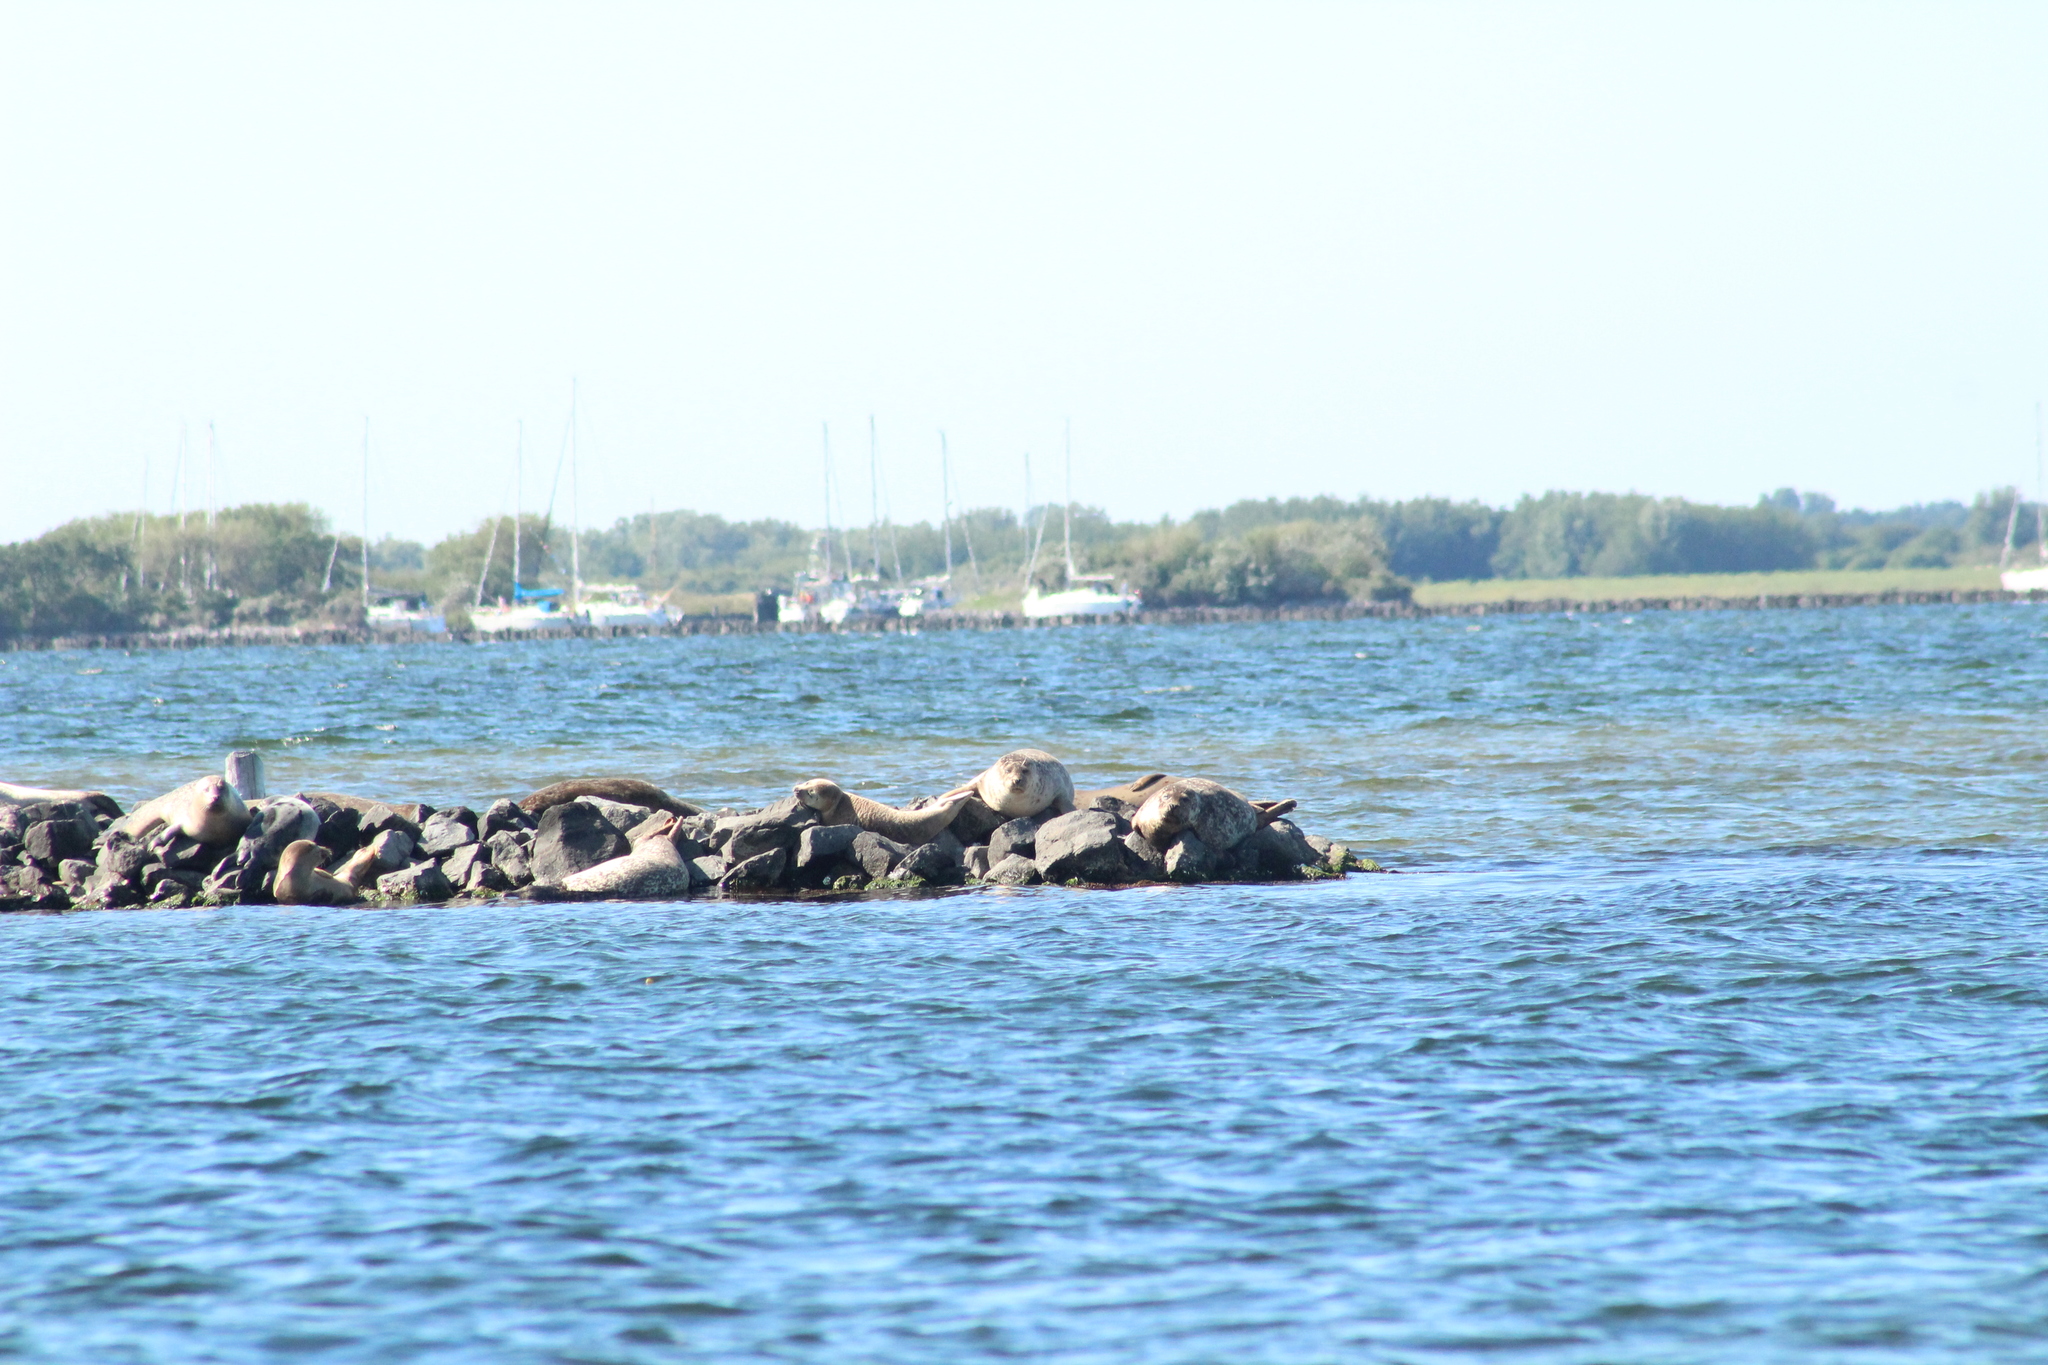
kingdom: Animalia
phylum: Chordata
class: Mammalia
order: Carnivora
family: Phocidae
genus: Phoca
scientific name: Phoca vitulina
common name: Harbor seal
